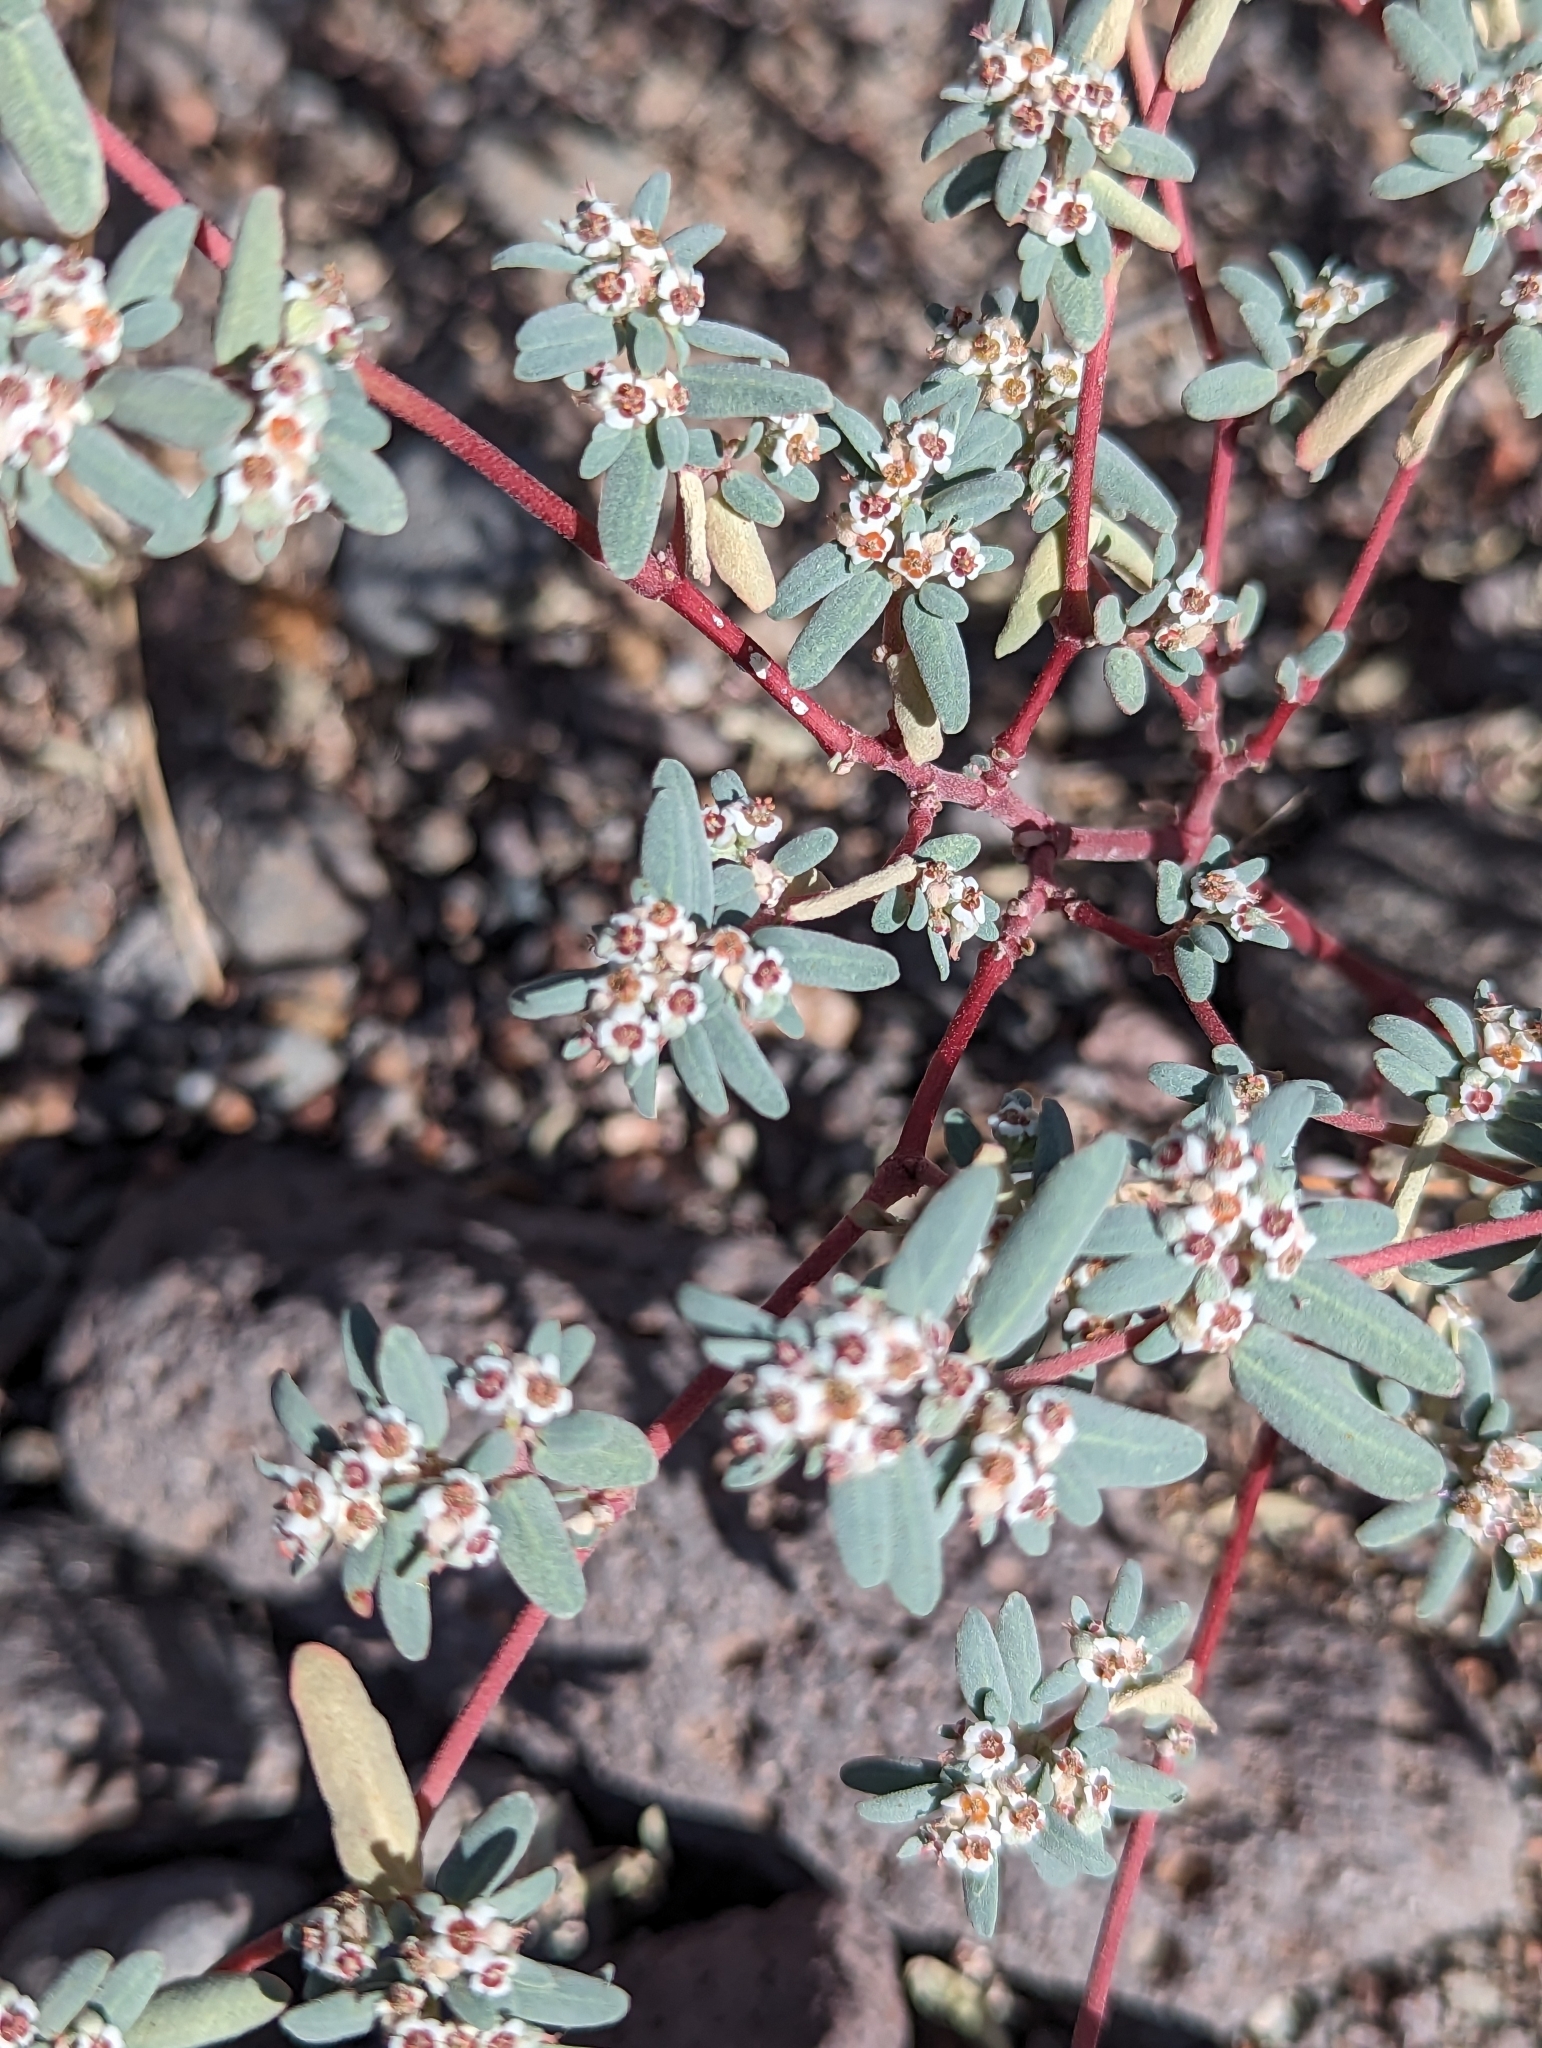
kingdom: Plantae
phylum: Tracheophyta
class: Magnoliopsida
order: Malpighiales
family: Euphorbiaceae
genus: Euphorbia
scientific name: Euphorbia pediculifera
